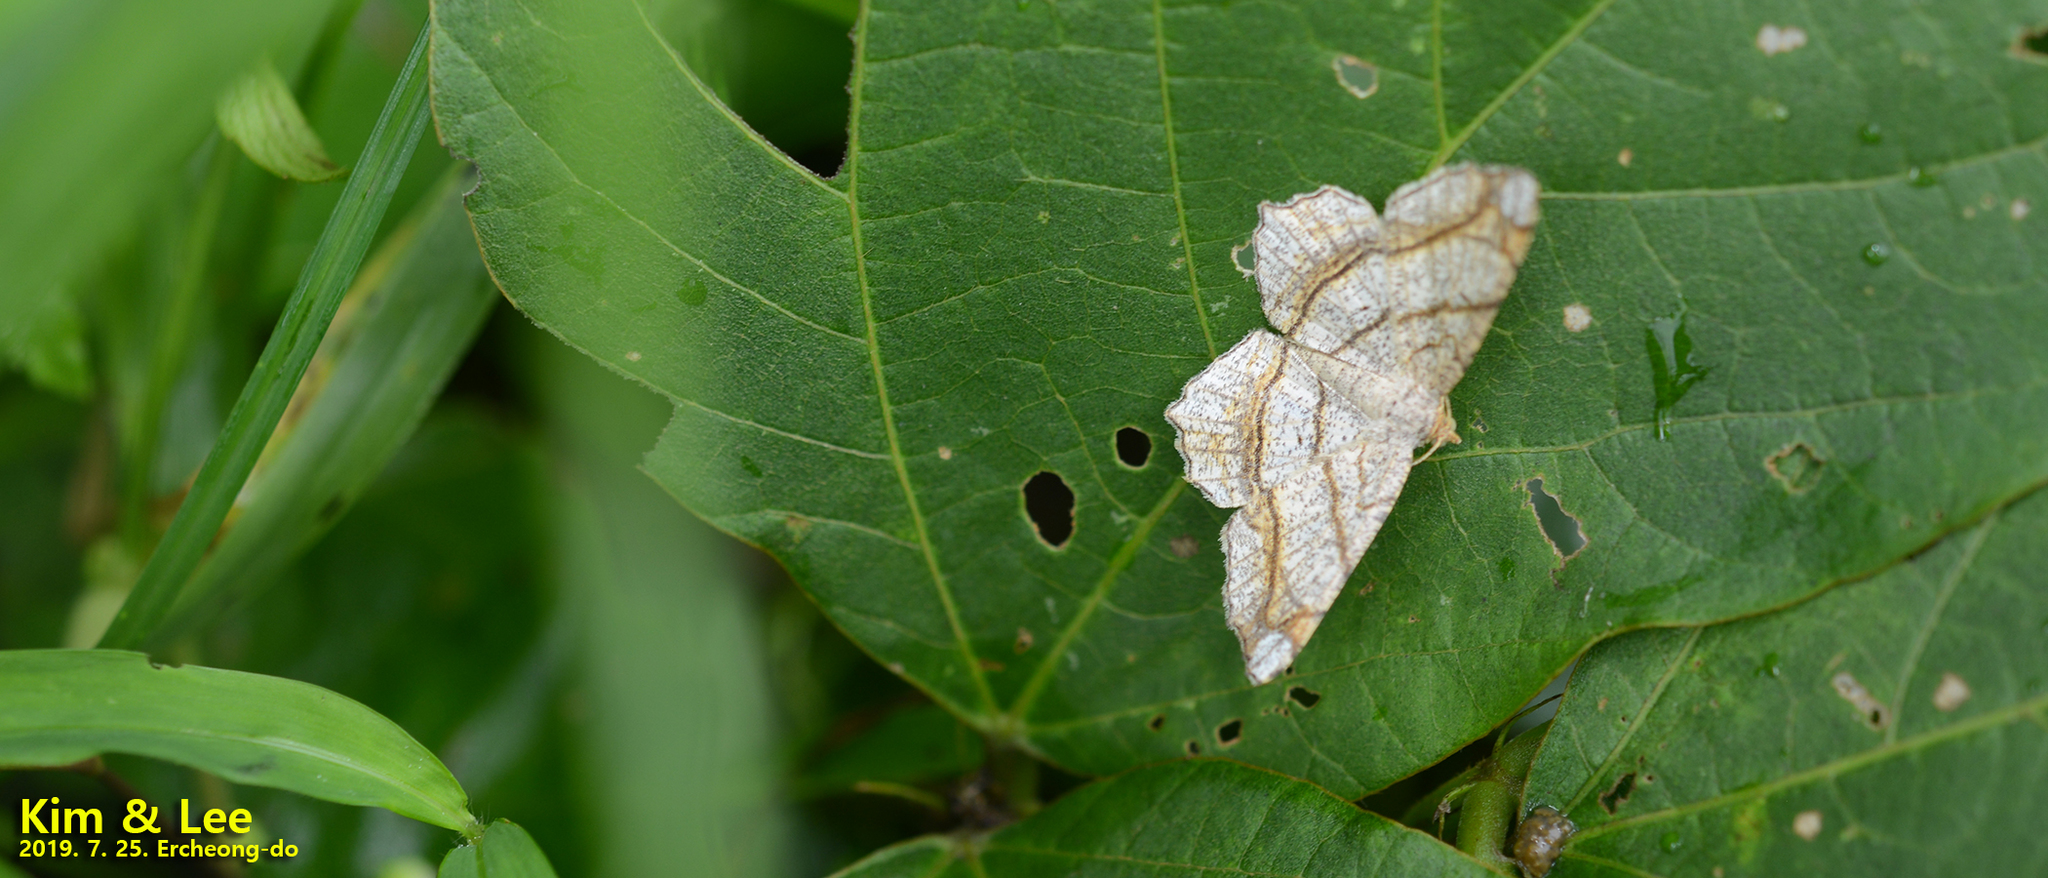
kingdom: Animalia
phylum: Arthropoda
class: Insecta
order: Lepidoptera
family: Geometridae
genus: Chiasmia
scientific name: Chiasmia defixaria
